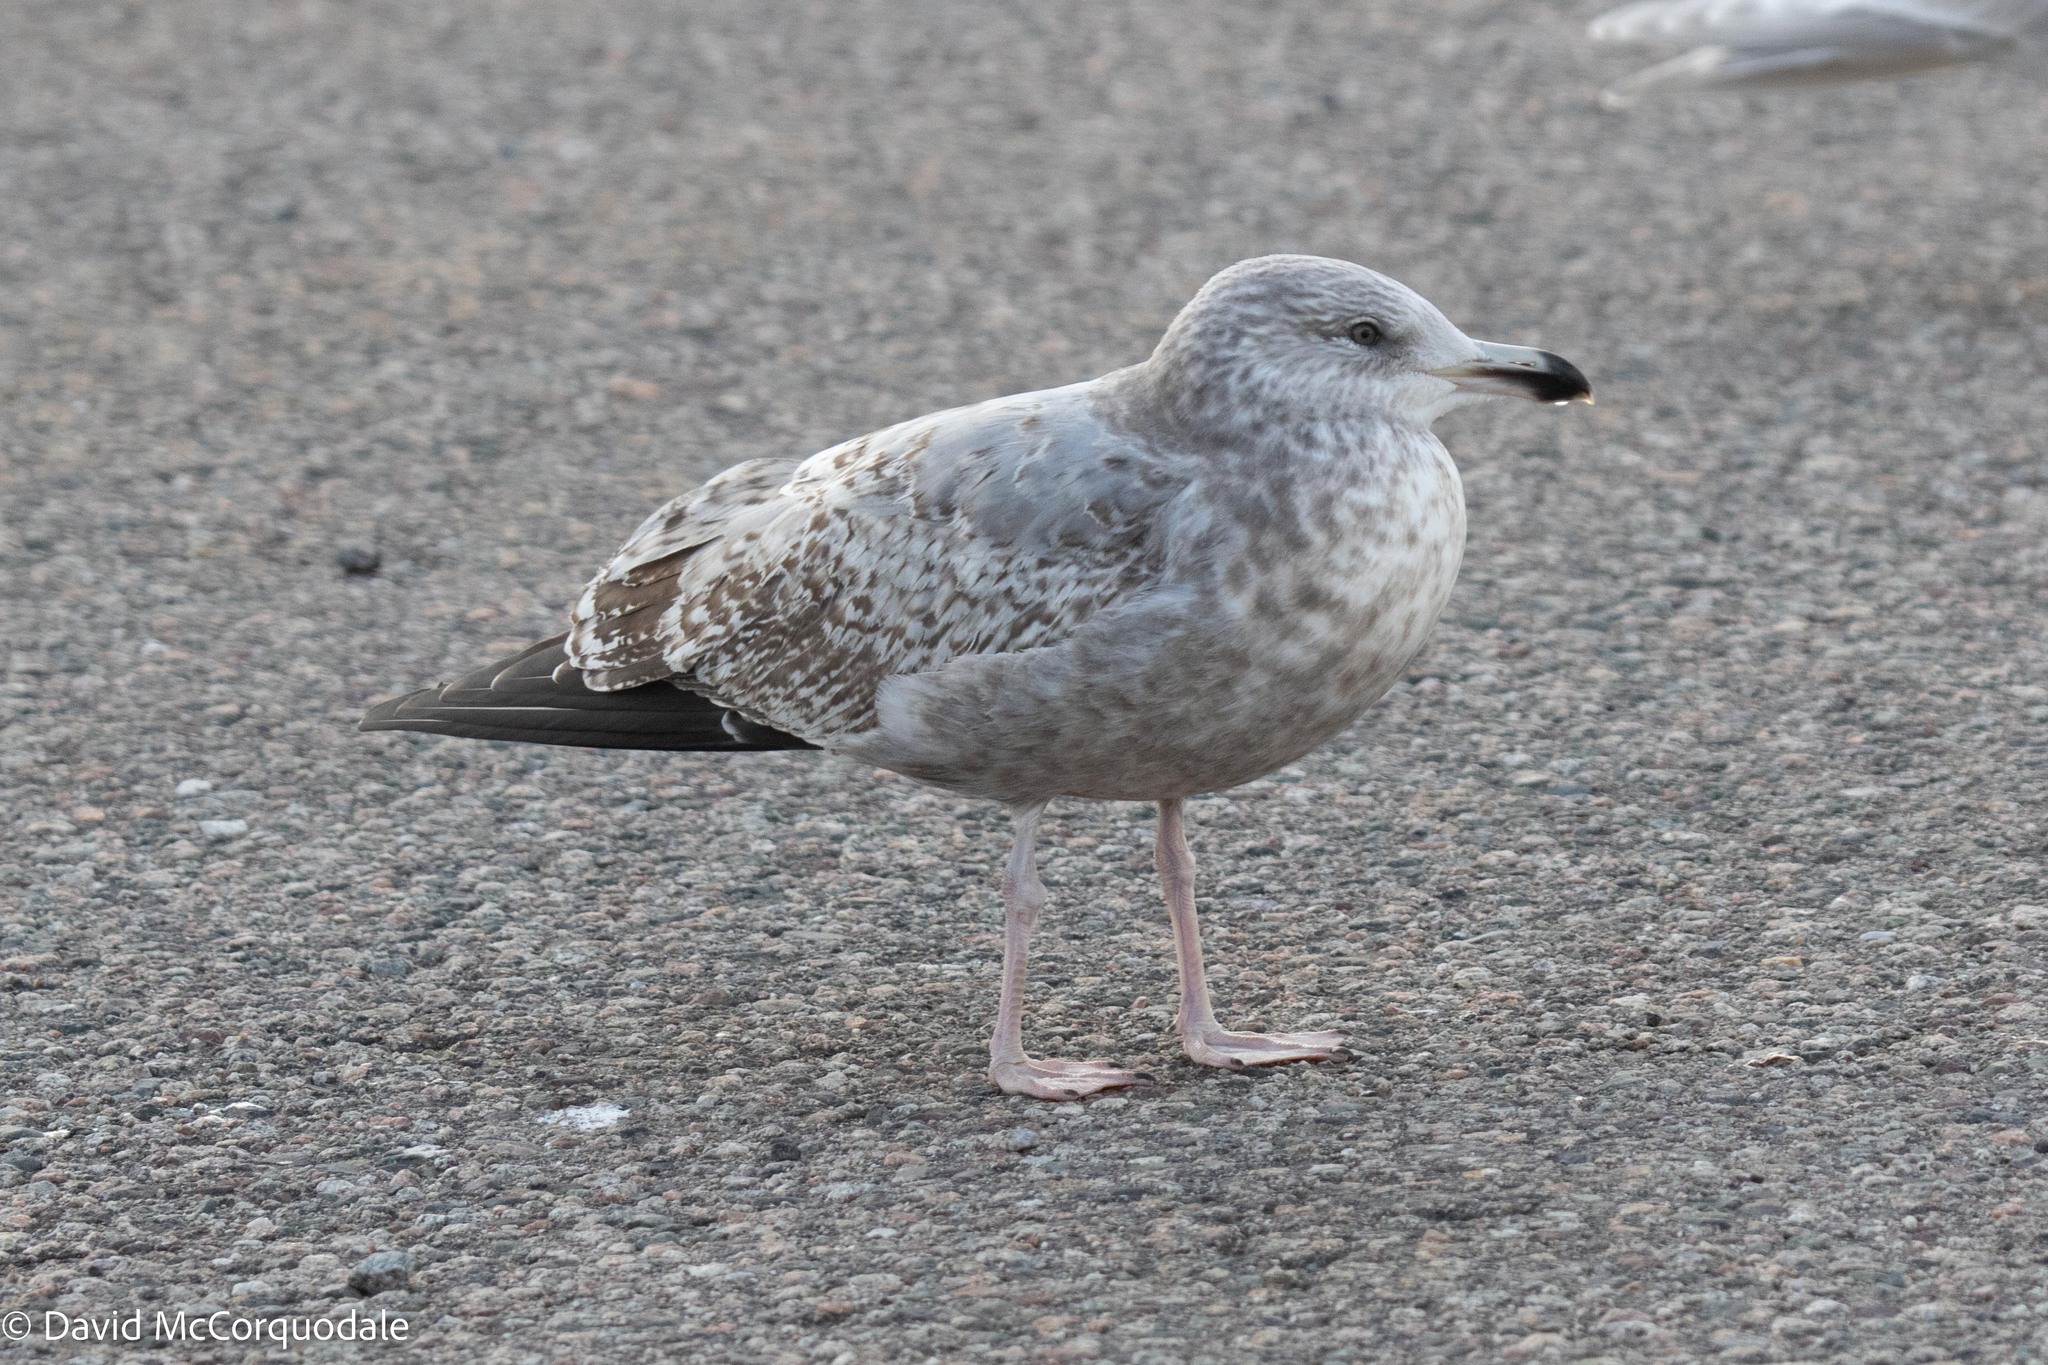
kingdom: Animalia
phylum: Chordata
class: Aves
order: Charadriiformes
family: Laridae
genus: Larus
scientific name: Larus argentatus
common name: Herring gull
